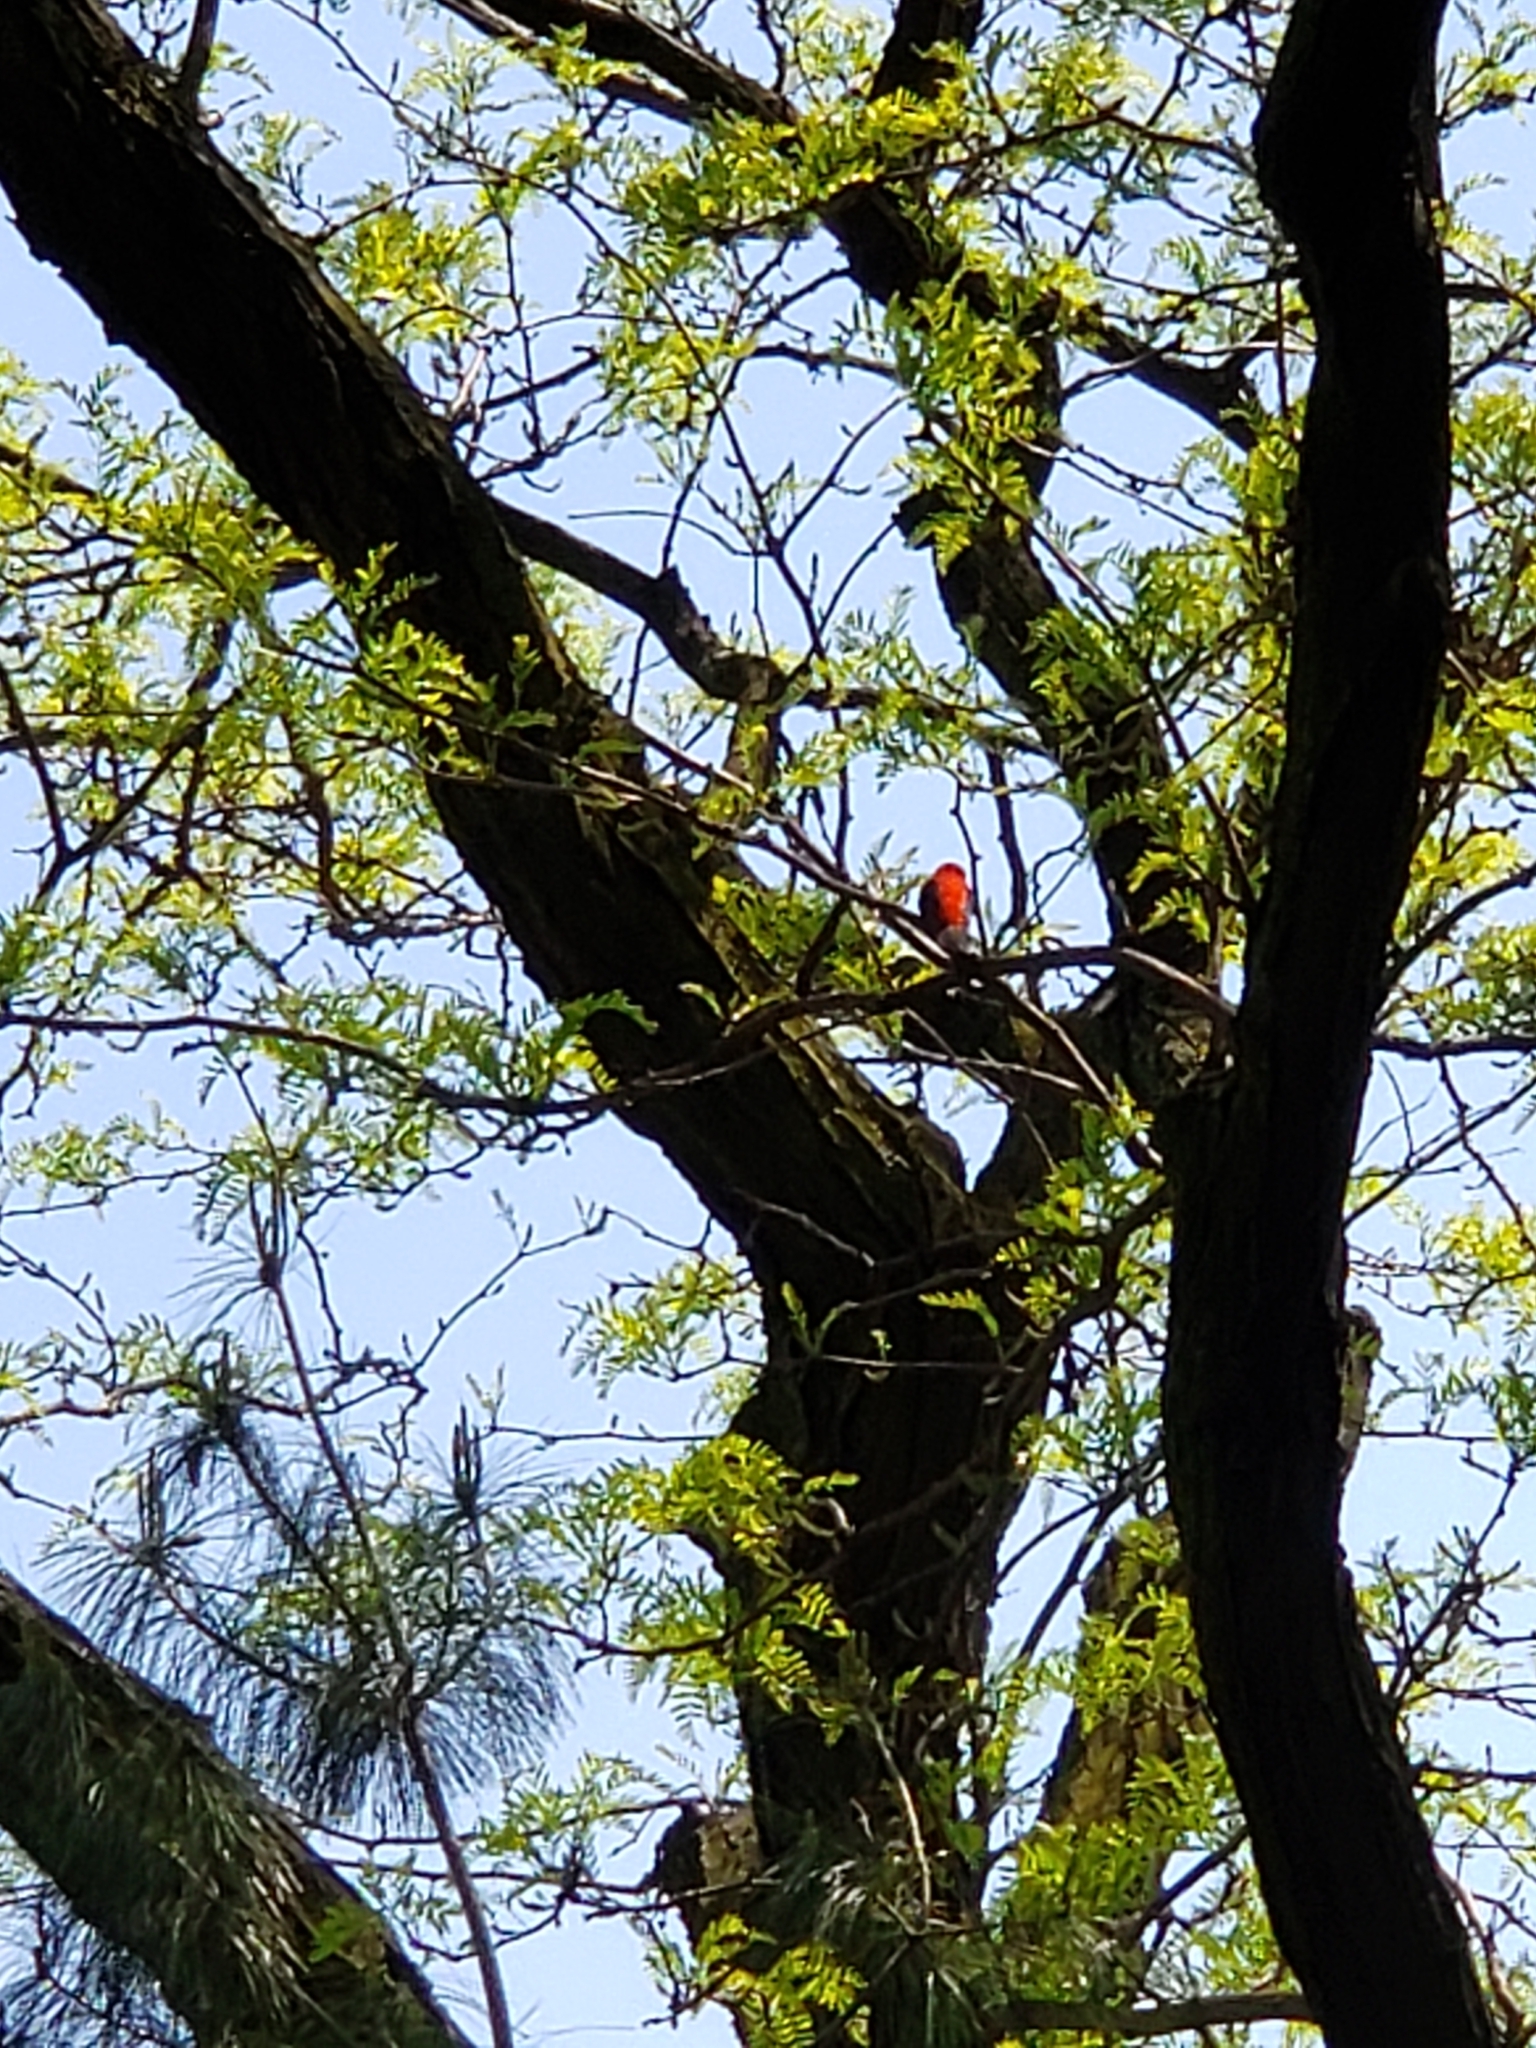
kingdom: Animalia
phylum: Chordata
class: Aves
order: Passeriformes
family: Cardinalidae
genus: Piranga
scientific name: Piranga olivacea
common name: Scarlet tanager
